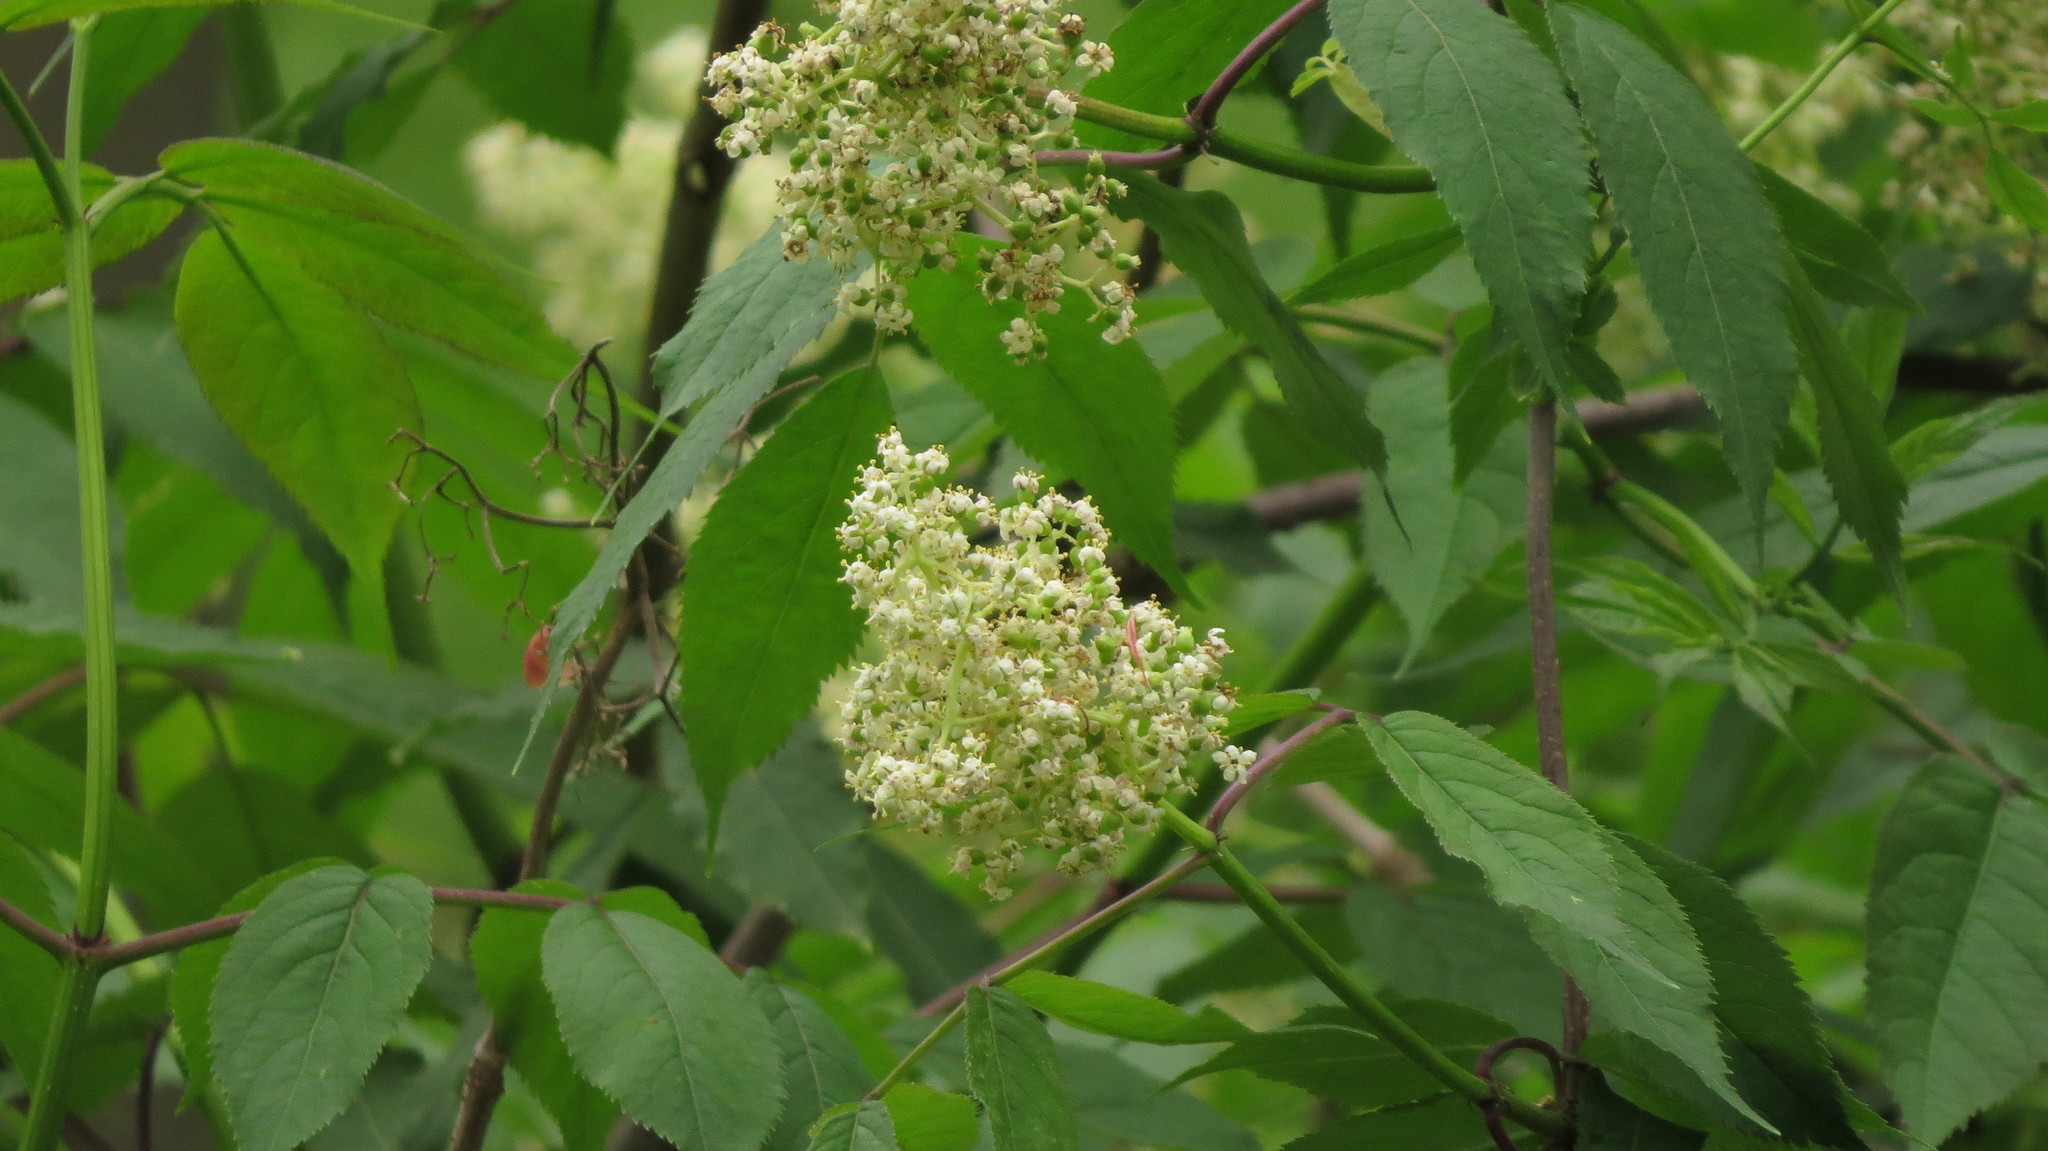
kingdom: Plantae
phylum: Tracheophyta
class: Magnoliopsida
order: Dipsacales
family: Viburnaceae
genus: Sambucus
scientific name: Sambucus racemosa
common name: Red-berried elder
